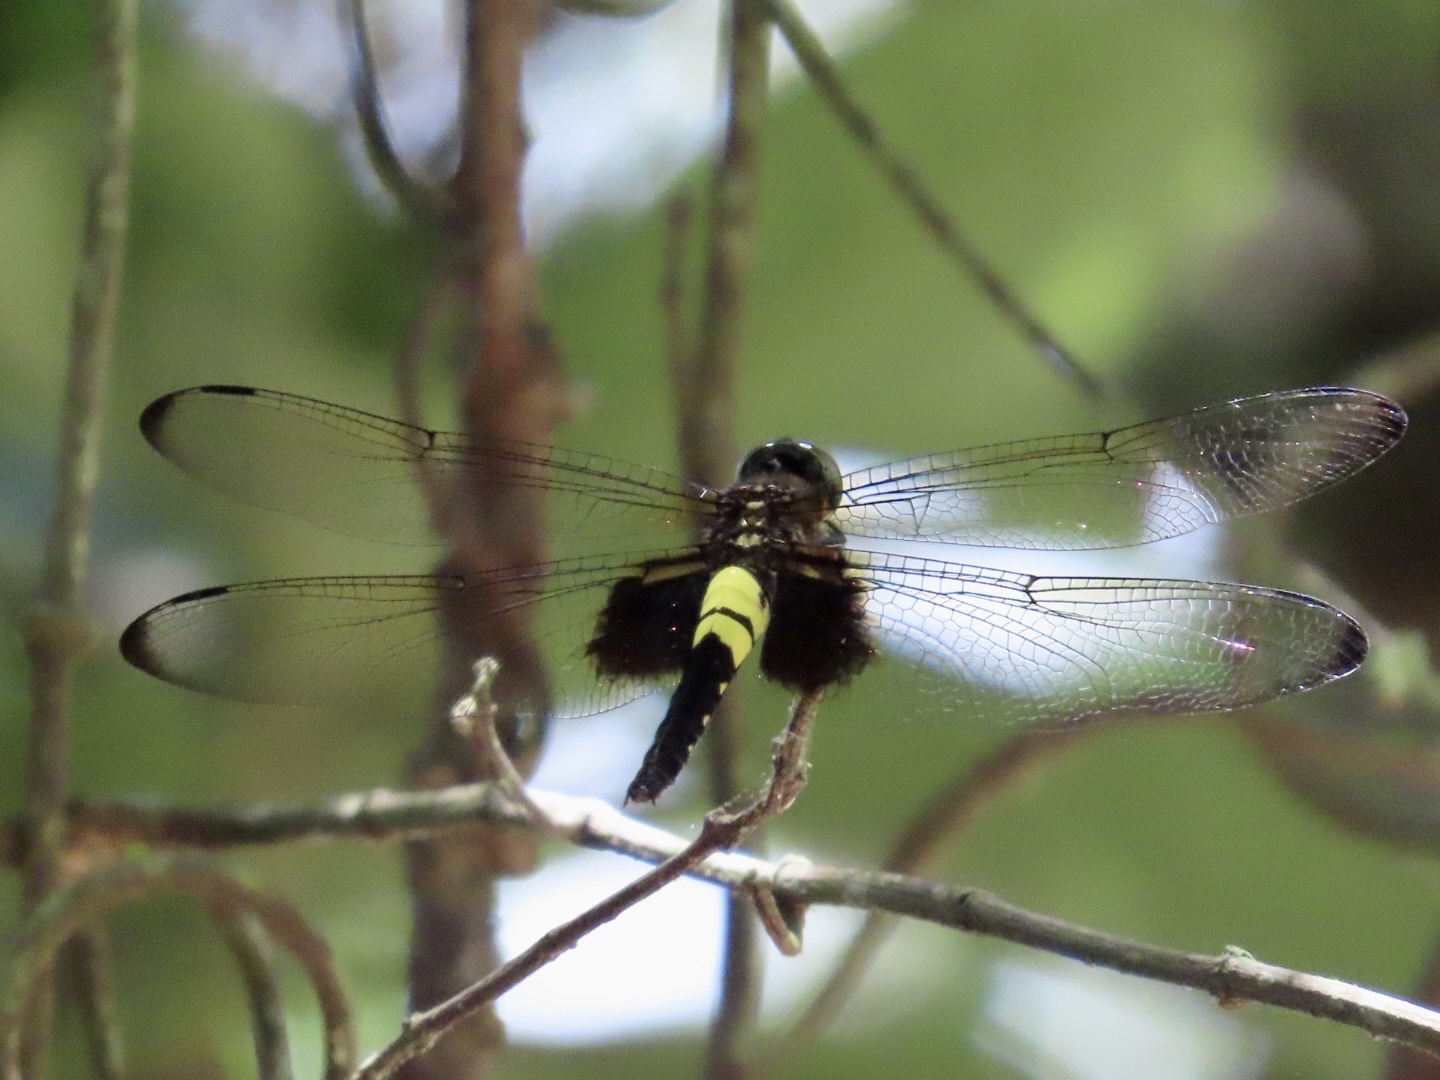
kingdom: Animalia
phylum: Arthropoda
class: Insecta
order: Odonata
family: Libellulidae
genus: Pseudothemis
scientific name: Pseudothemis zonata
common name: Pied skimmer
